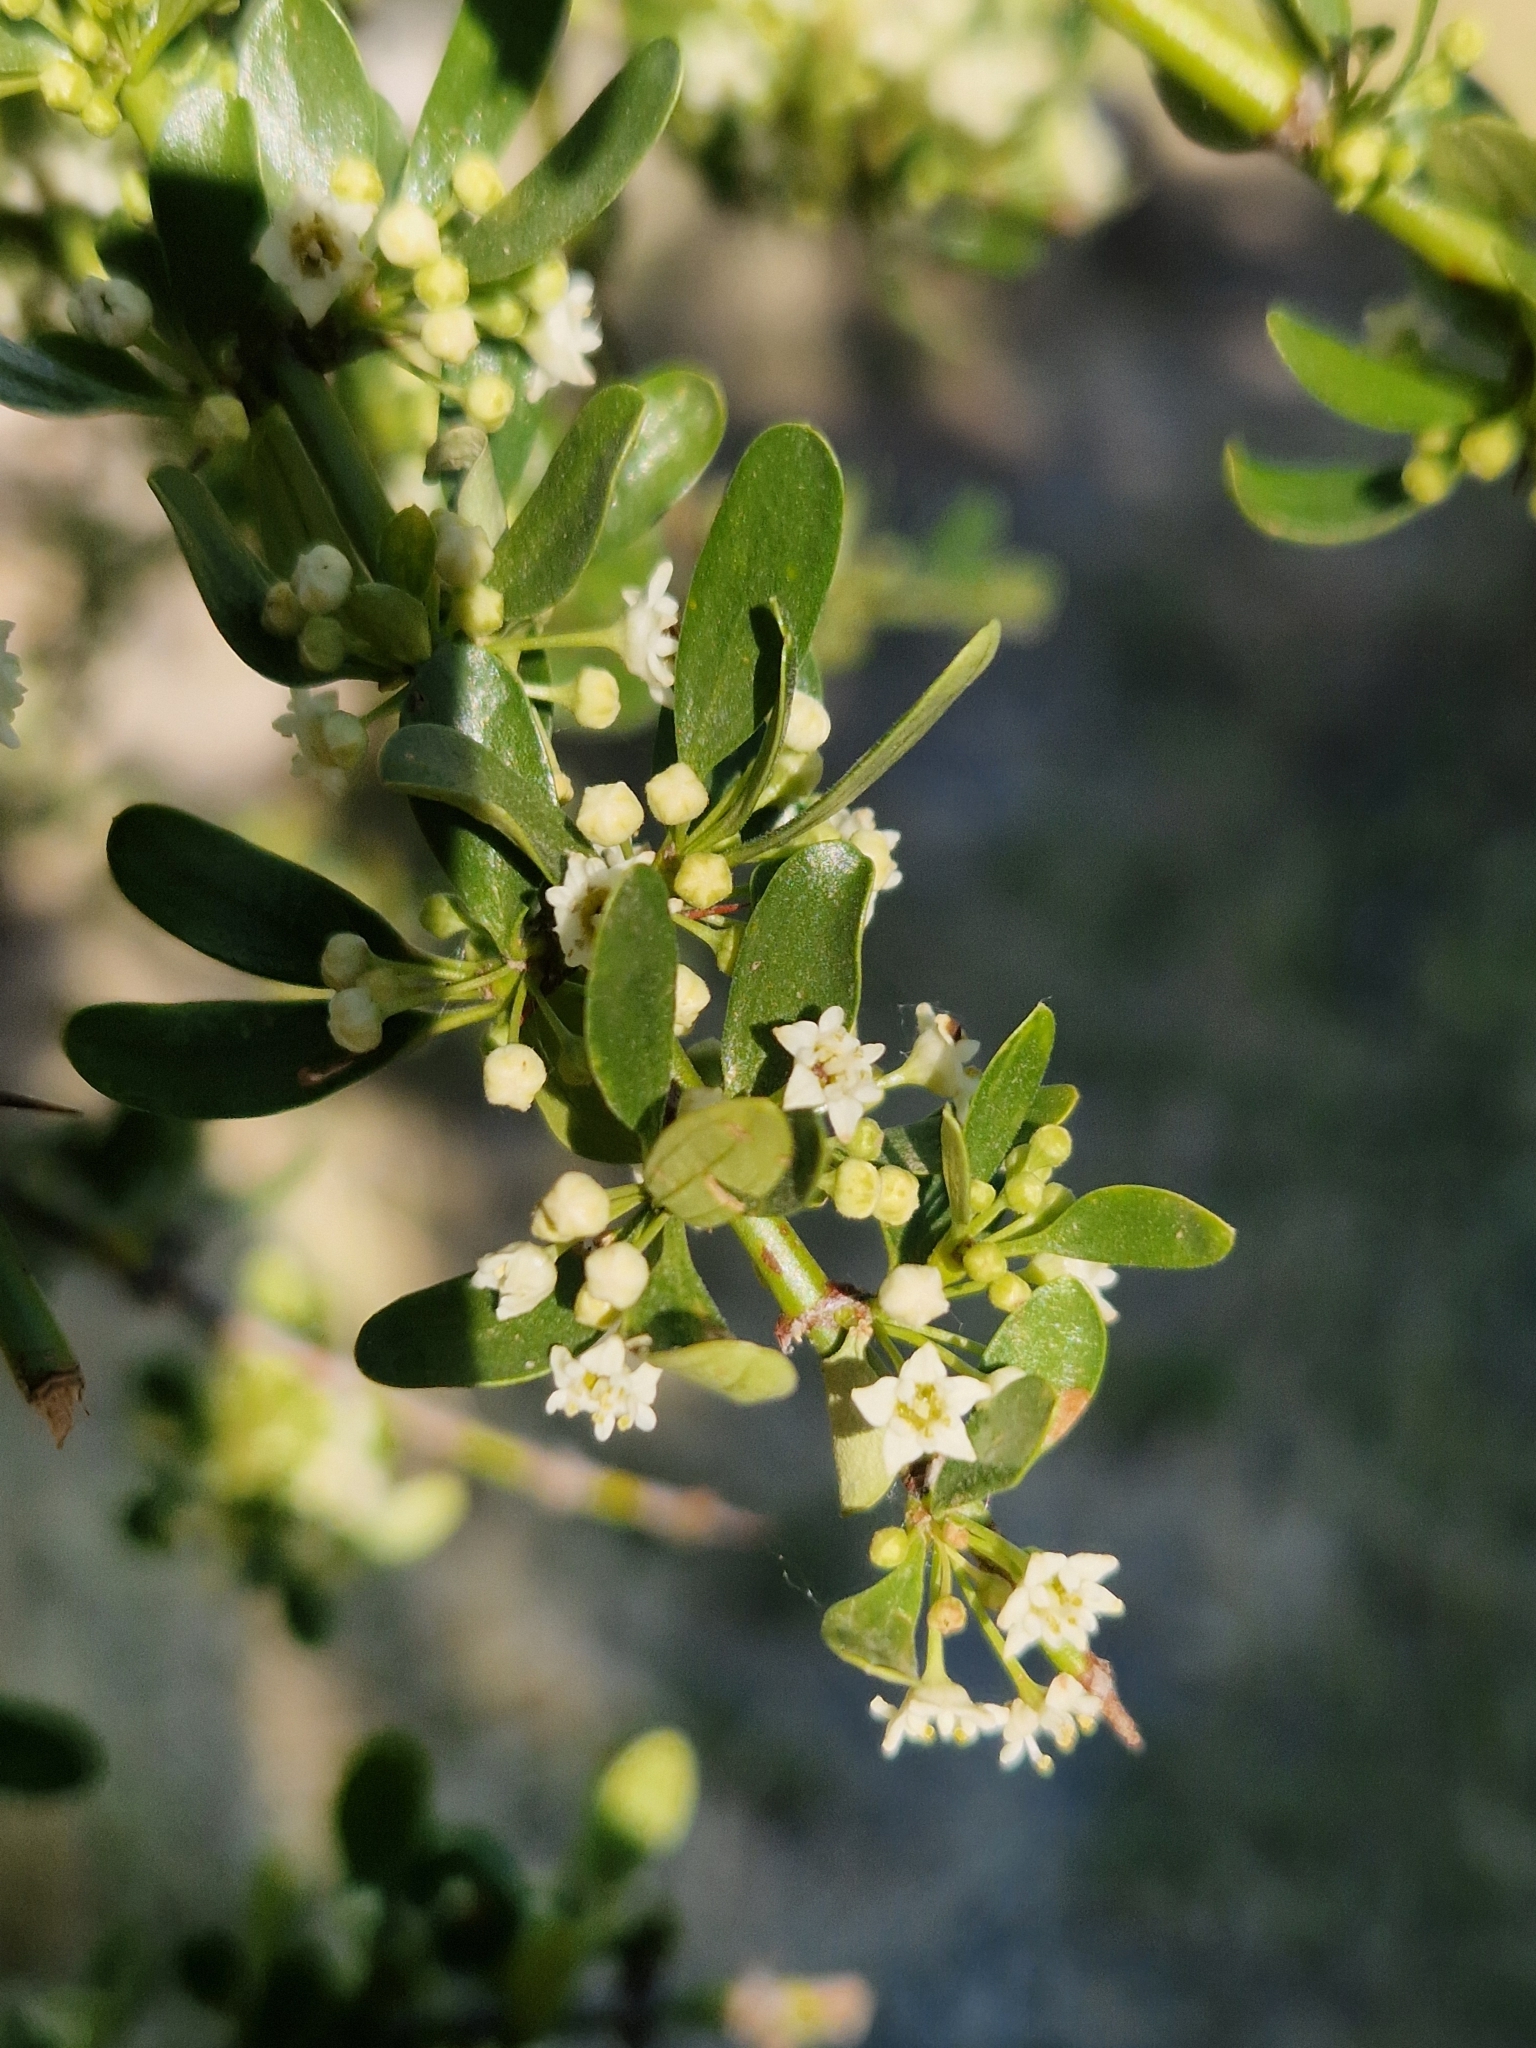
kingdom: Plantae
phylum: Tracheophyta
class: Magnoliopsida
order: Rosales
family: Rhamnaceae
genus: Discaria
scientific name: Discaria chacaye
